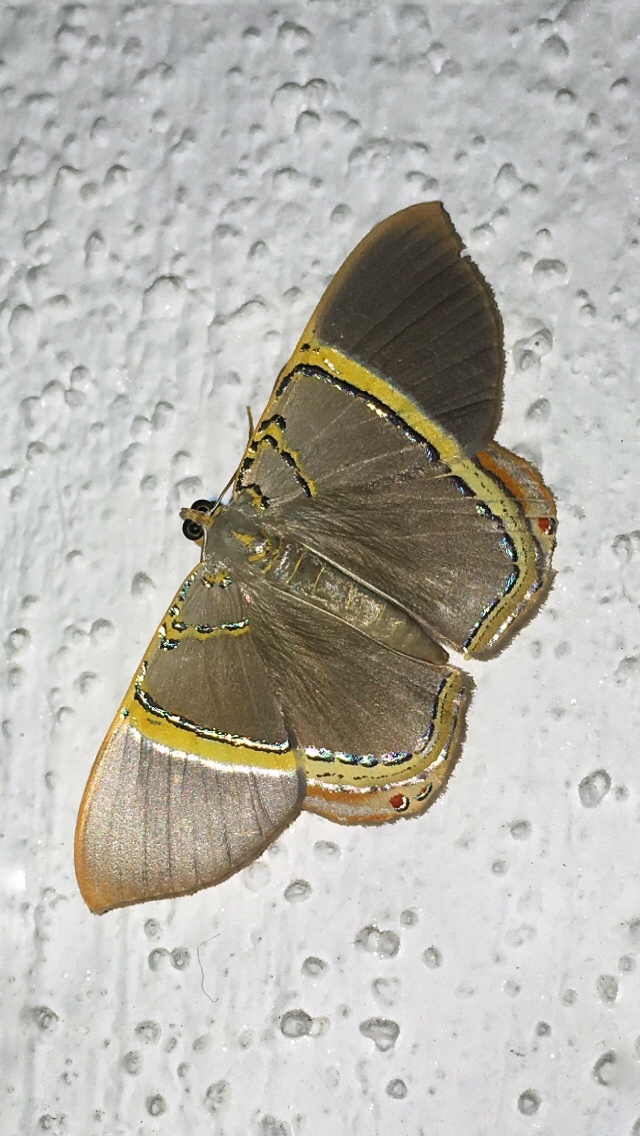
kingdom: Animalia
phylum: Arthropoda
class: Insecta
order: Lepidoptera
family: Geometridae
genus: Phrygionis
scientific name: Phrygionis privignaria
